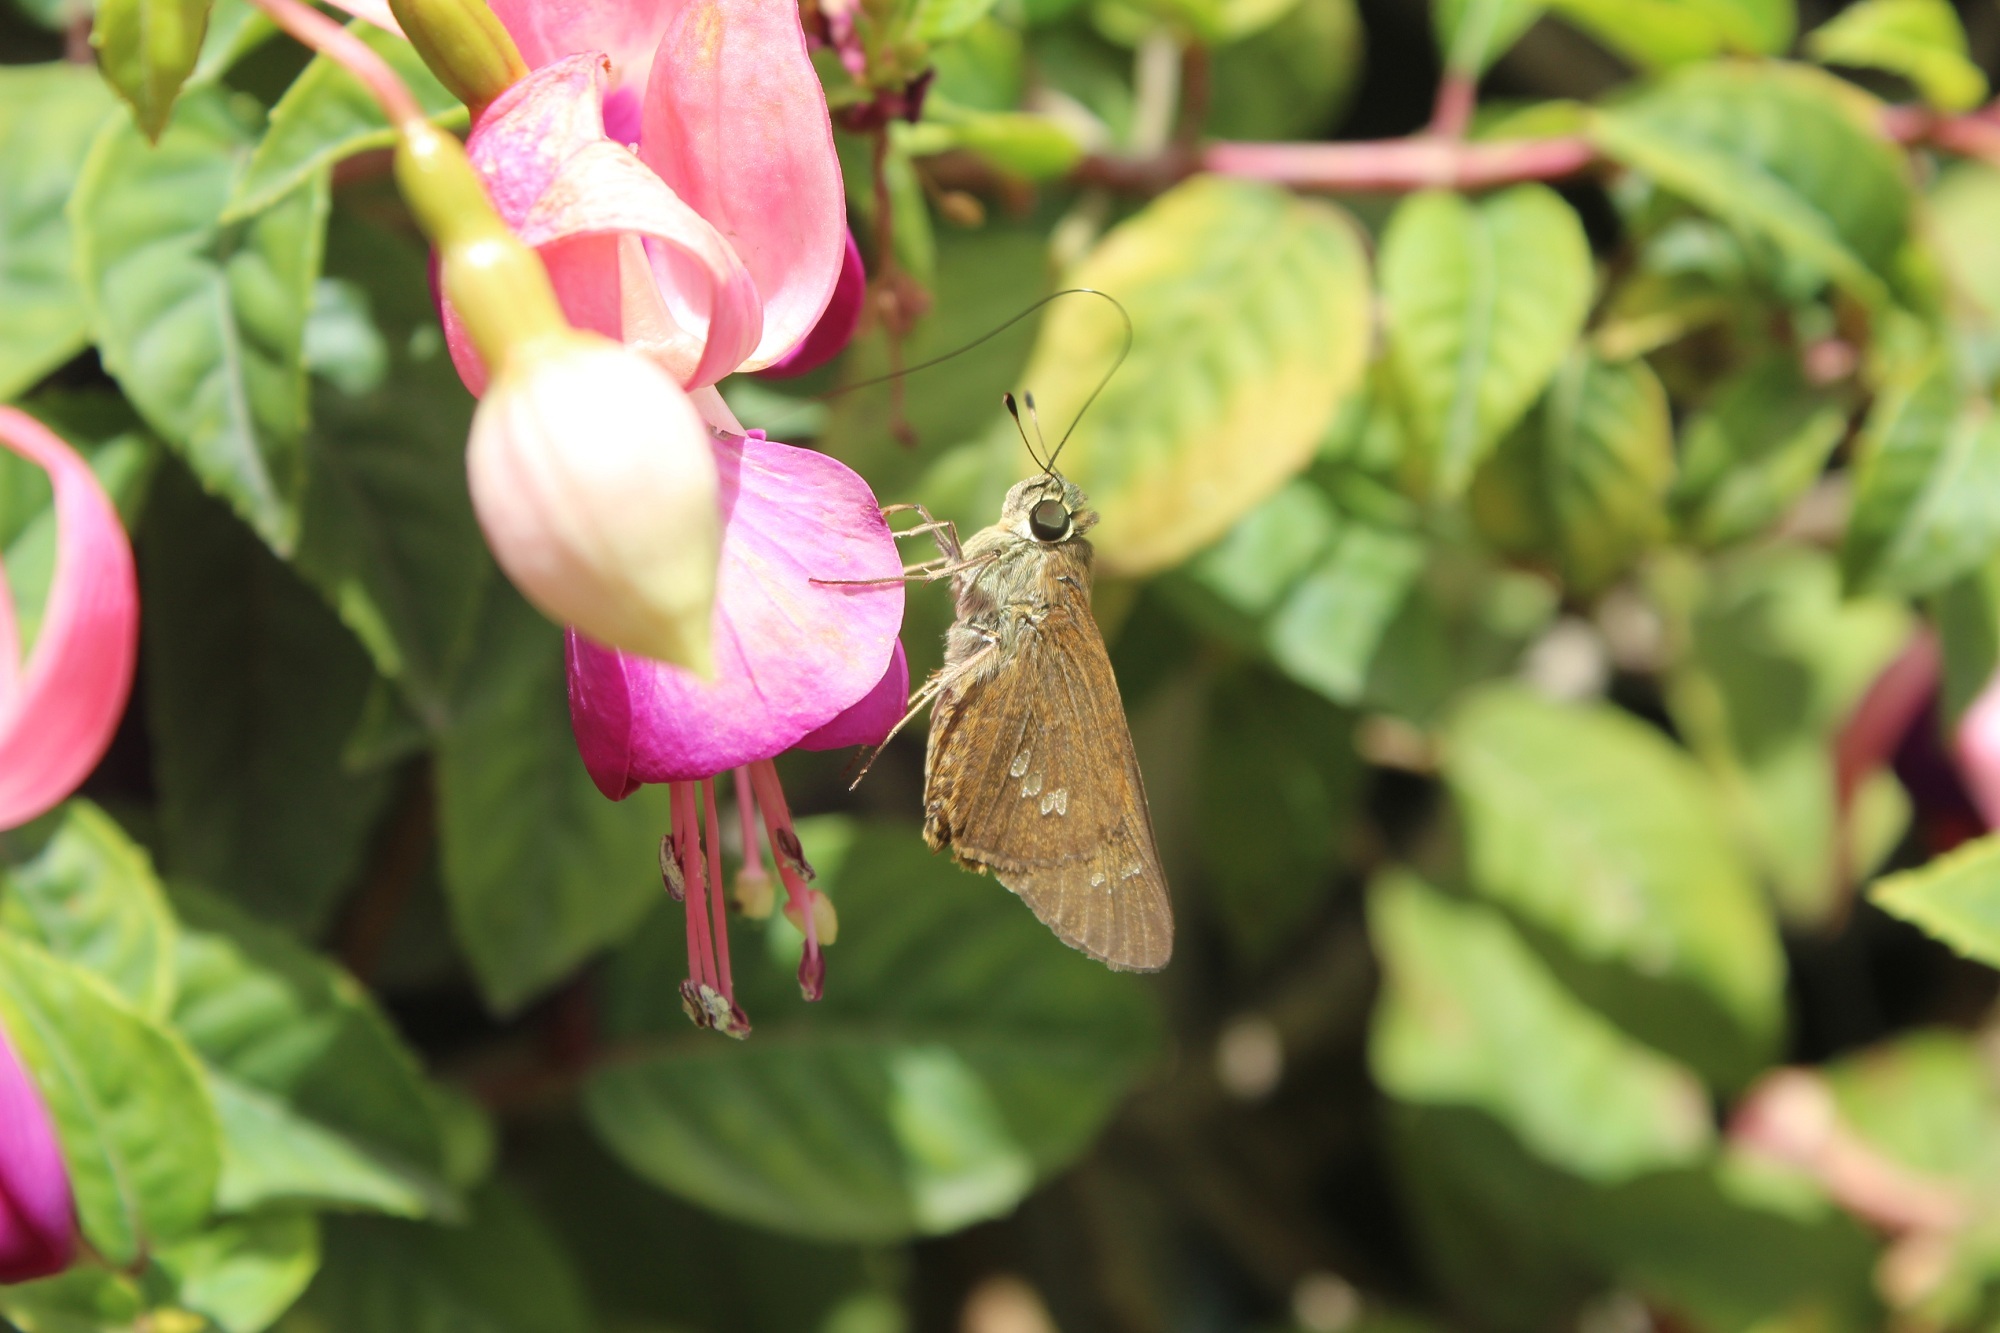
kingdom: Animalia
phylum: Arthropoda
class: Insecta
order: Lepidoptera
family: Hesperiidae
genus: Calpodes
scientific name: Calpodes ethlius
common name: Brazilian skipper
